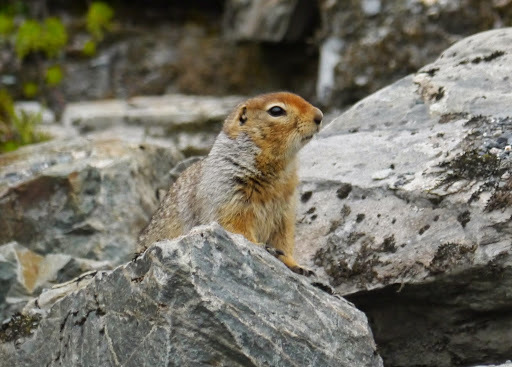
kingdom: Animalia
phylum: Chordata
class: Mammalia
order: Rodentia
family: Sciuridae
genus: Urocitellus
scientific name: Urocitellus parryii
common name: Arctic ground squirrel
